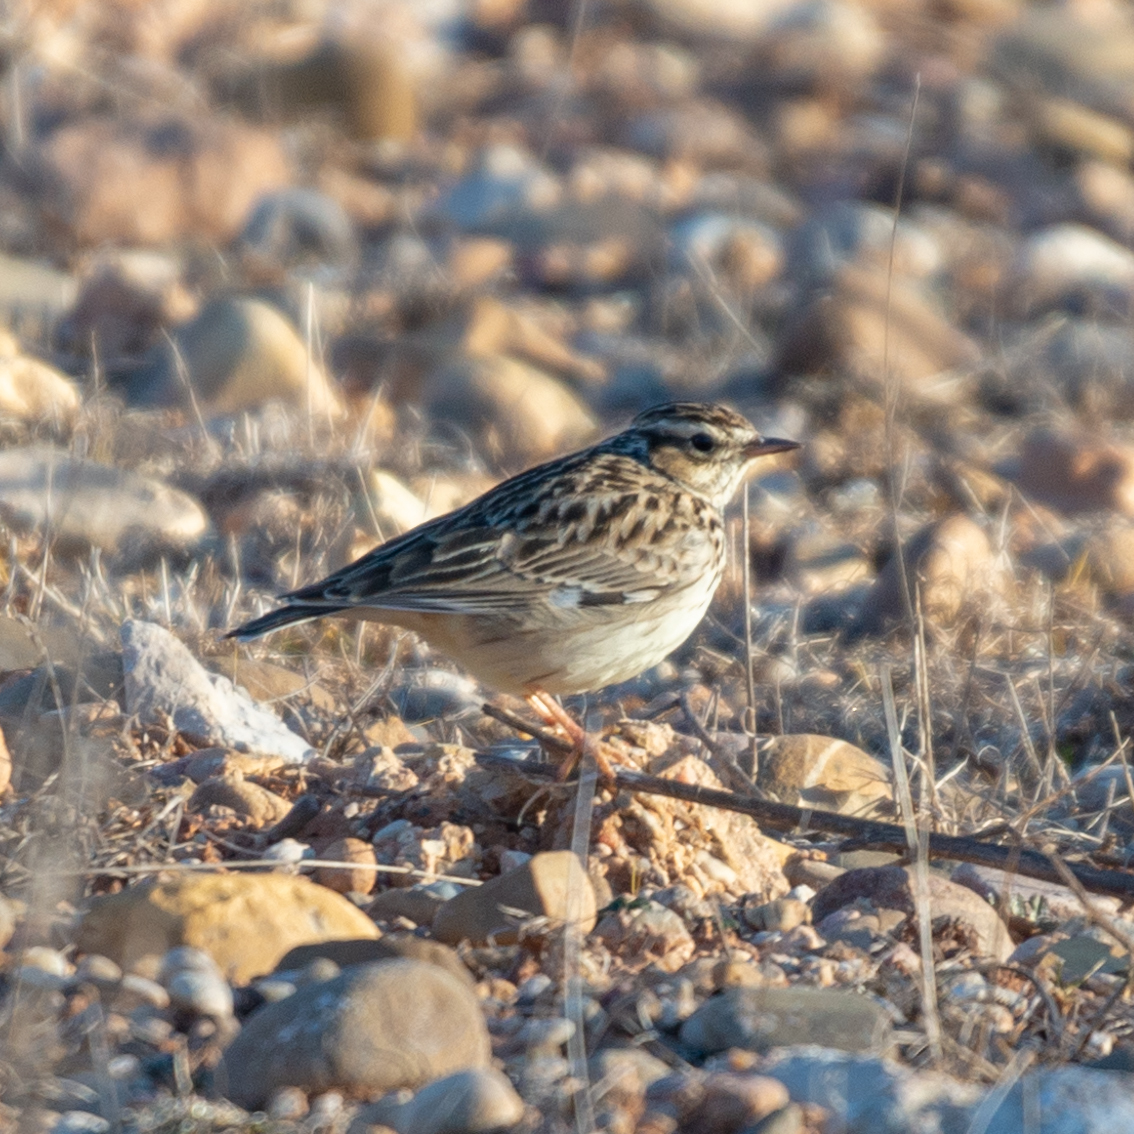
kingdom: Animalia
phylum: Chordata
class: Aves
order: Passeriformes
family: Alaudidae
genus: Lullula
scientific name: Lullula arborea
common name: Woodlark
